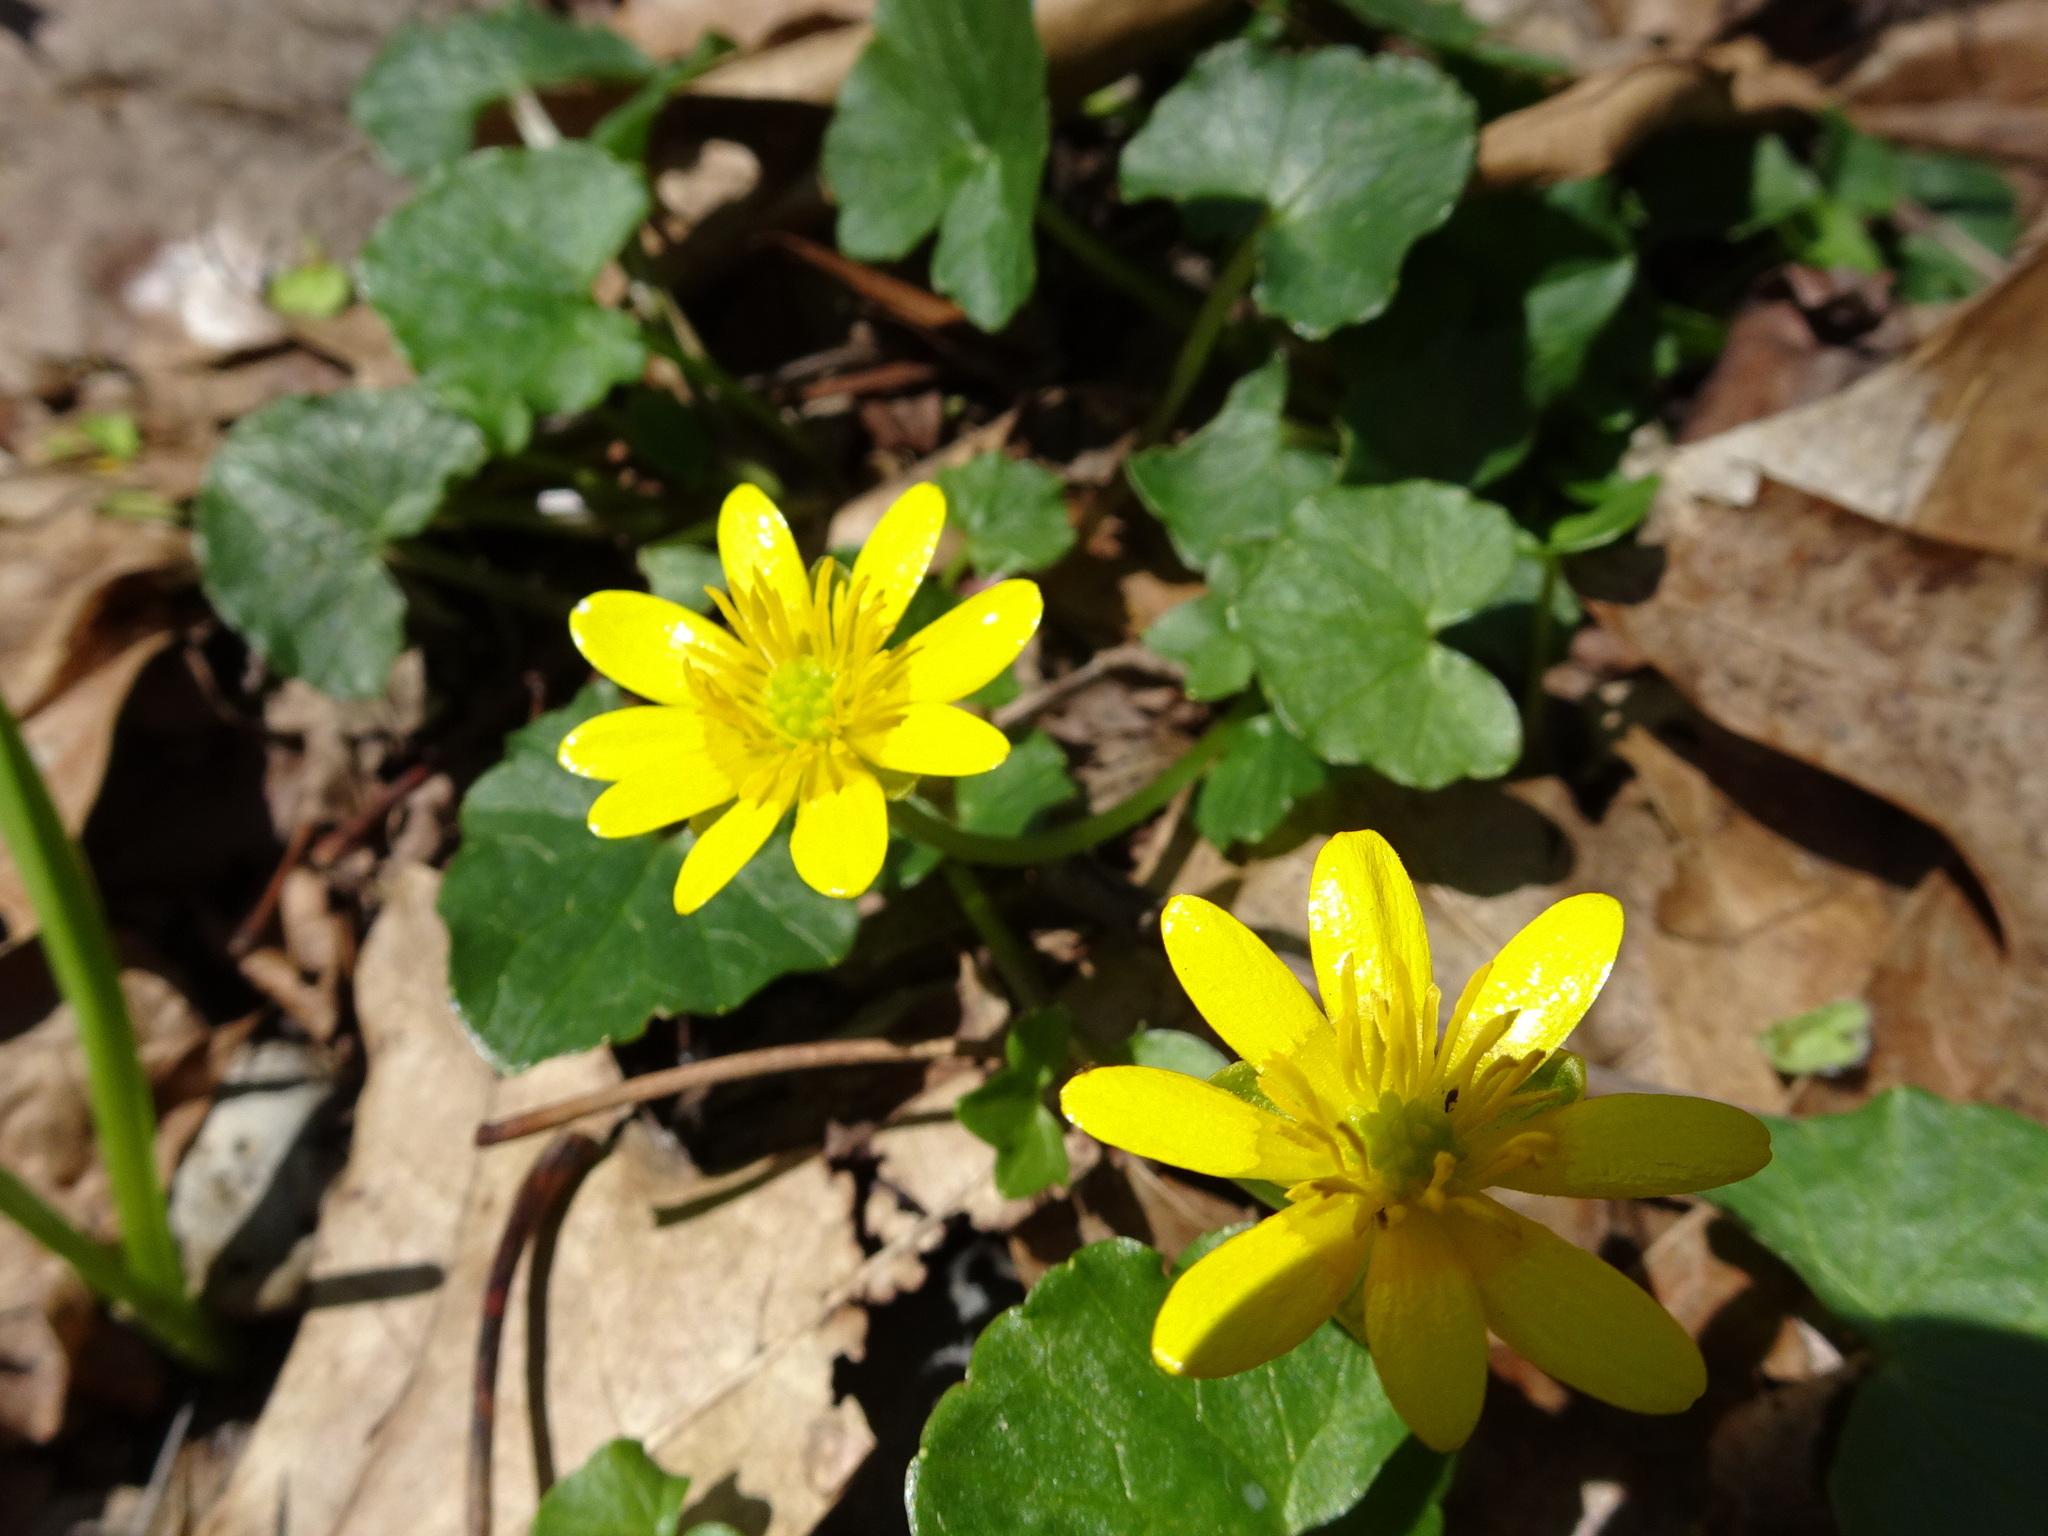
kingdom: Plantae
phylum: Tracheophyta
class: Magnoliopsida
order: Ranunculales
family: Ranunculaceae
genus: Ficaria
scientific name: Ficaria verna
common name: Lesser celandine
